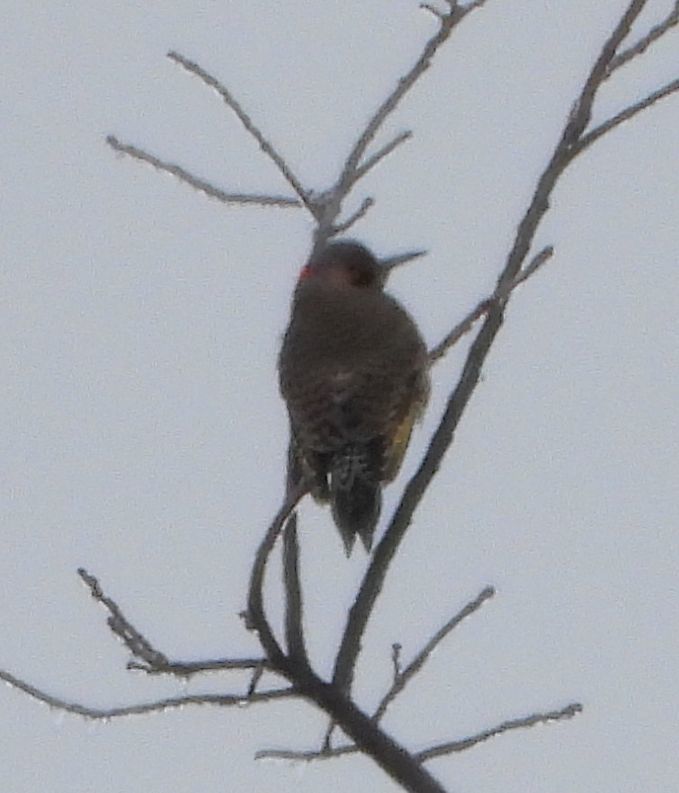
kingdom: Animalia
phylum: Chordata
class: Aves
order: Piciformes
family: Picidae
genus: Colaptes
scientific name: Colaptes auratus
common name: Northern flicker
